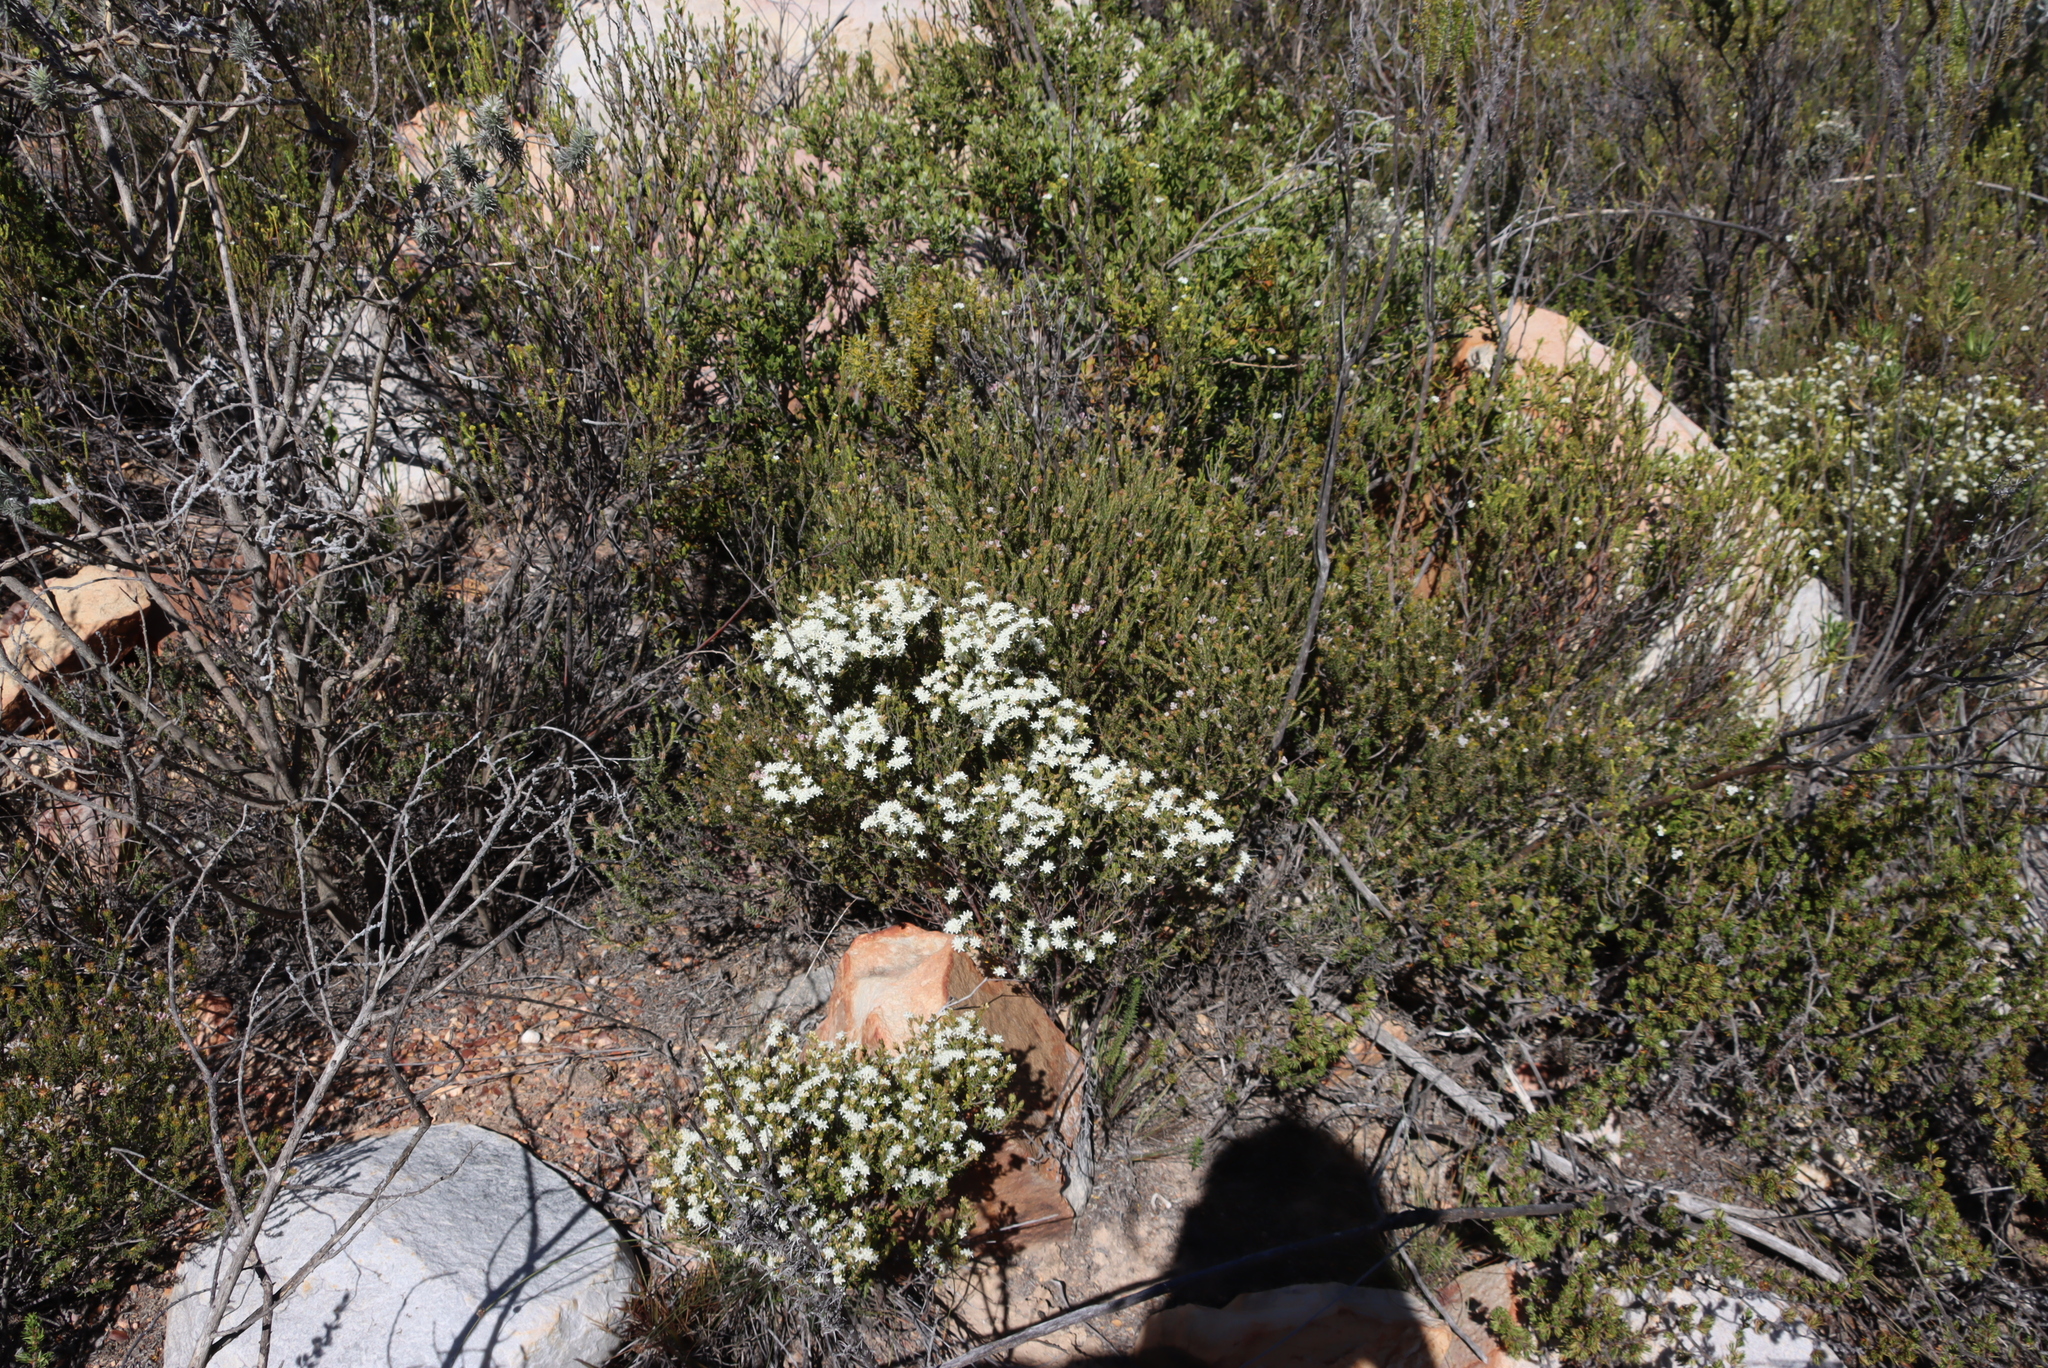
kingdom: Plantae
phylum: Tracheophyta
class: Magnoliopsida
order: Sapindales
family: Rutaceae
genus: Agathosma
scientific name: Agathosma mundtii
